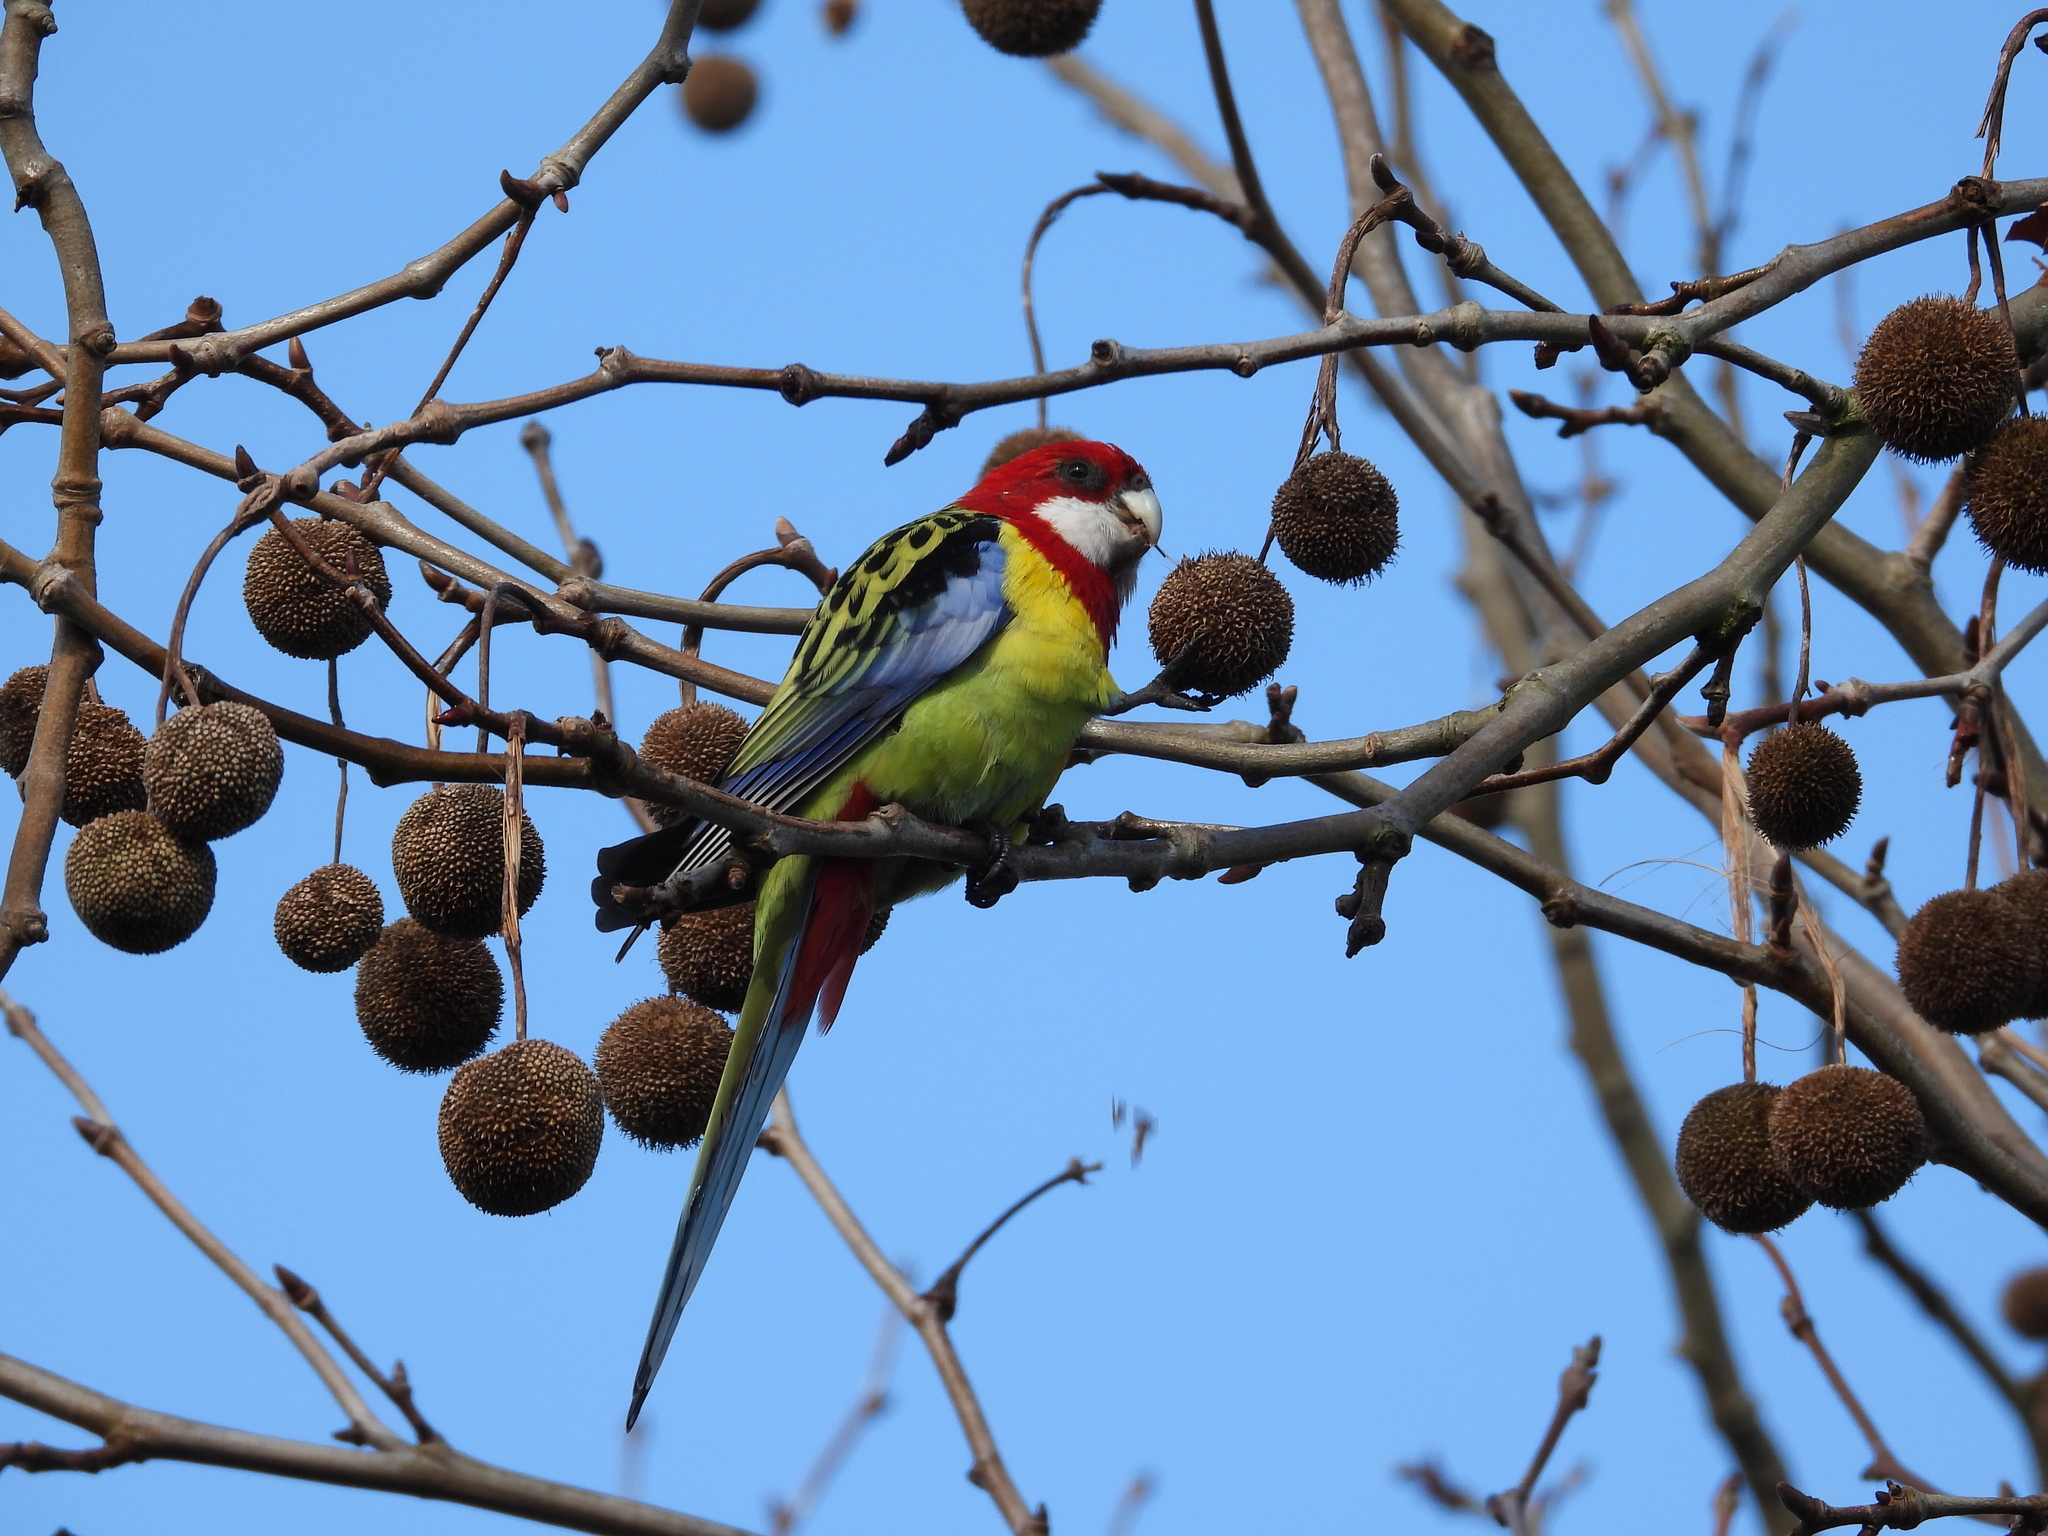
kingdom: Animalia
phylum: Chordata
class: Aves
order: Psittaciformes
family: Psittacidae
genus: Platycercus
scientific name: Platycercus eximius
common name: Eastern rosella
